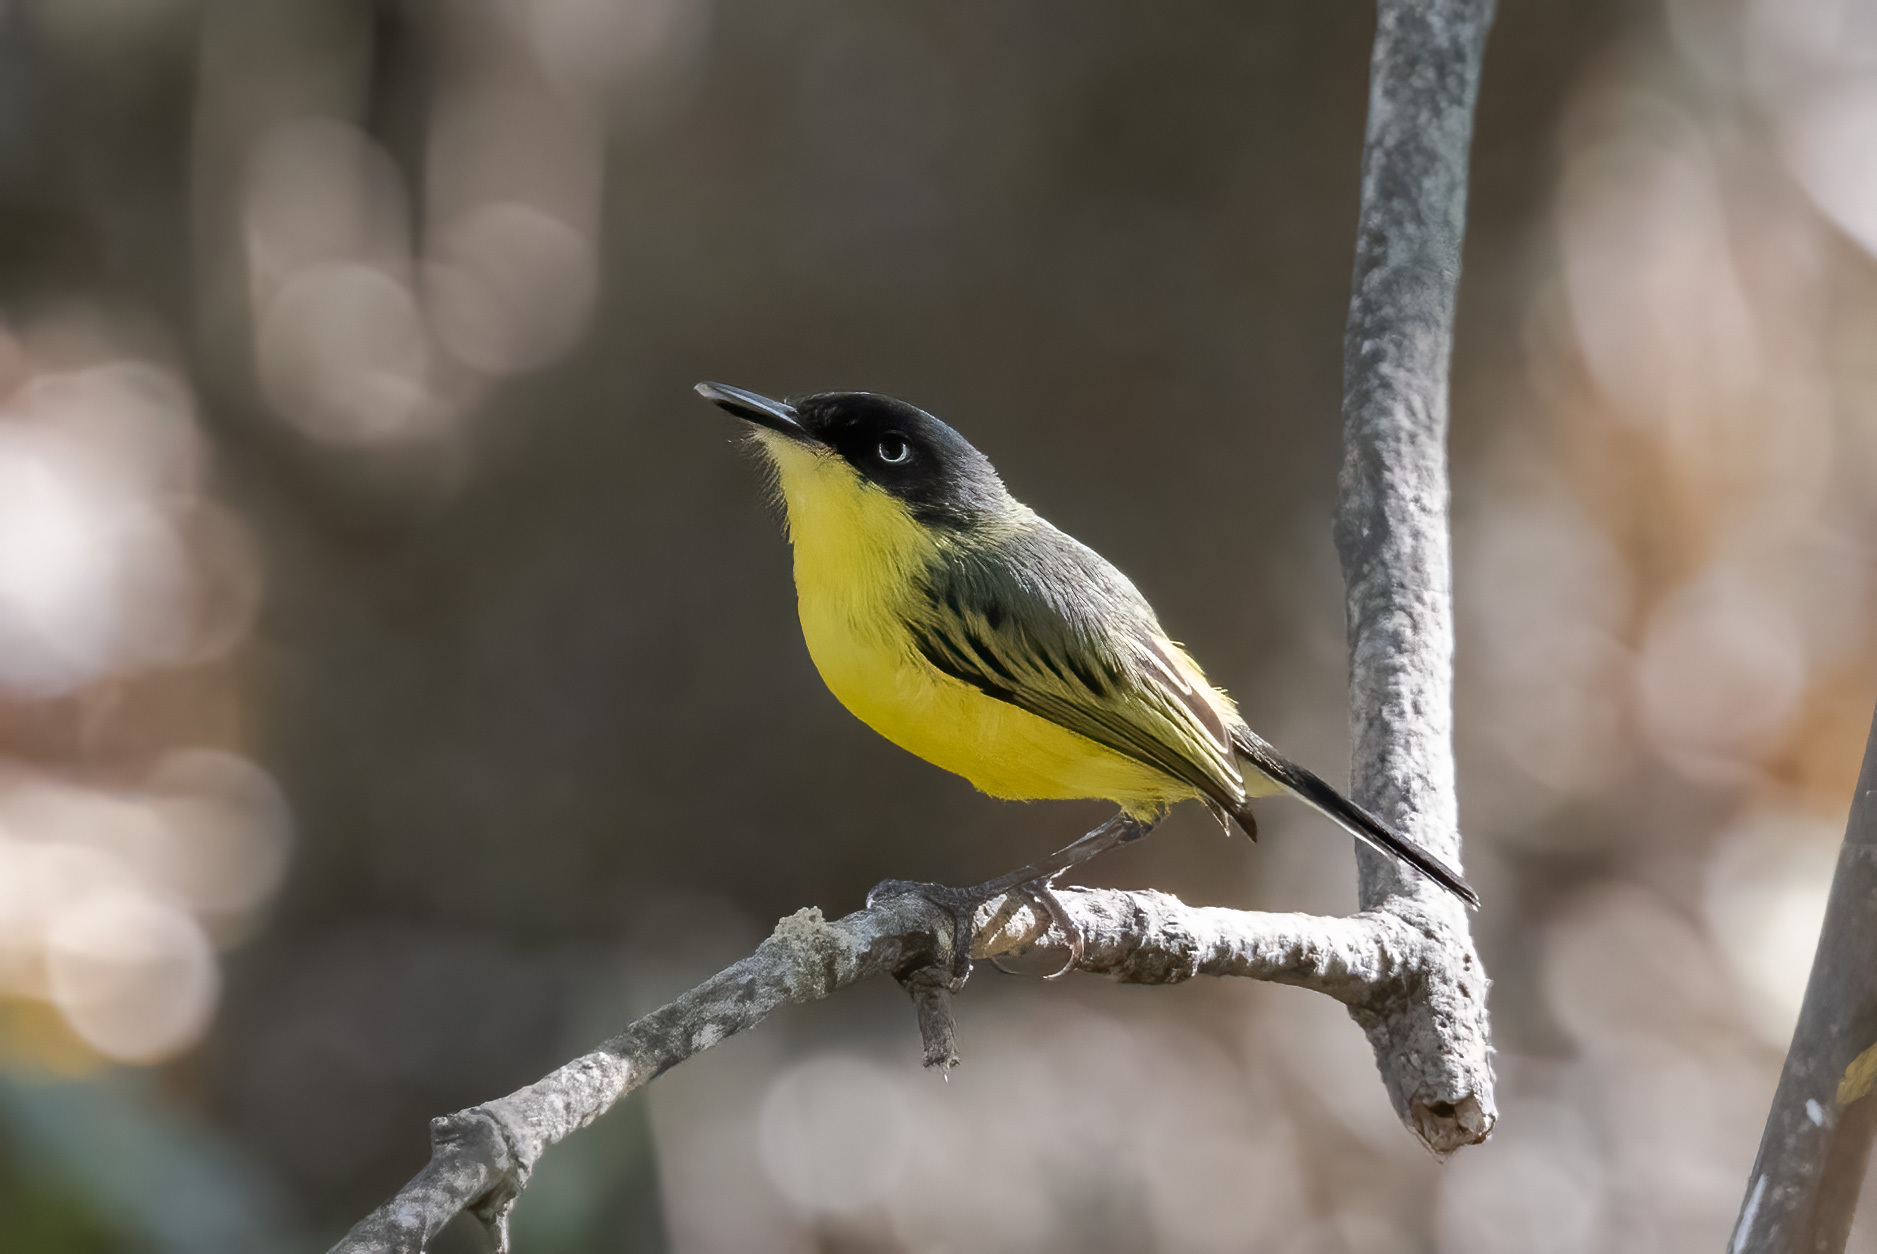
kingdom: Animalia
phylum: Chordata
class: Aves
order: Passeriformes
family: Tyrannidae
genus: Todirostrum
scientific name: Todirostrum cinereum
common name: Common tody-flycatcher
